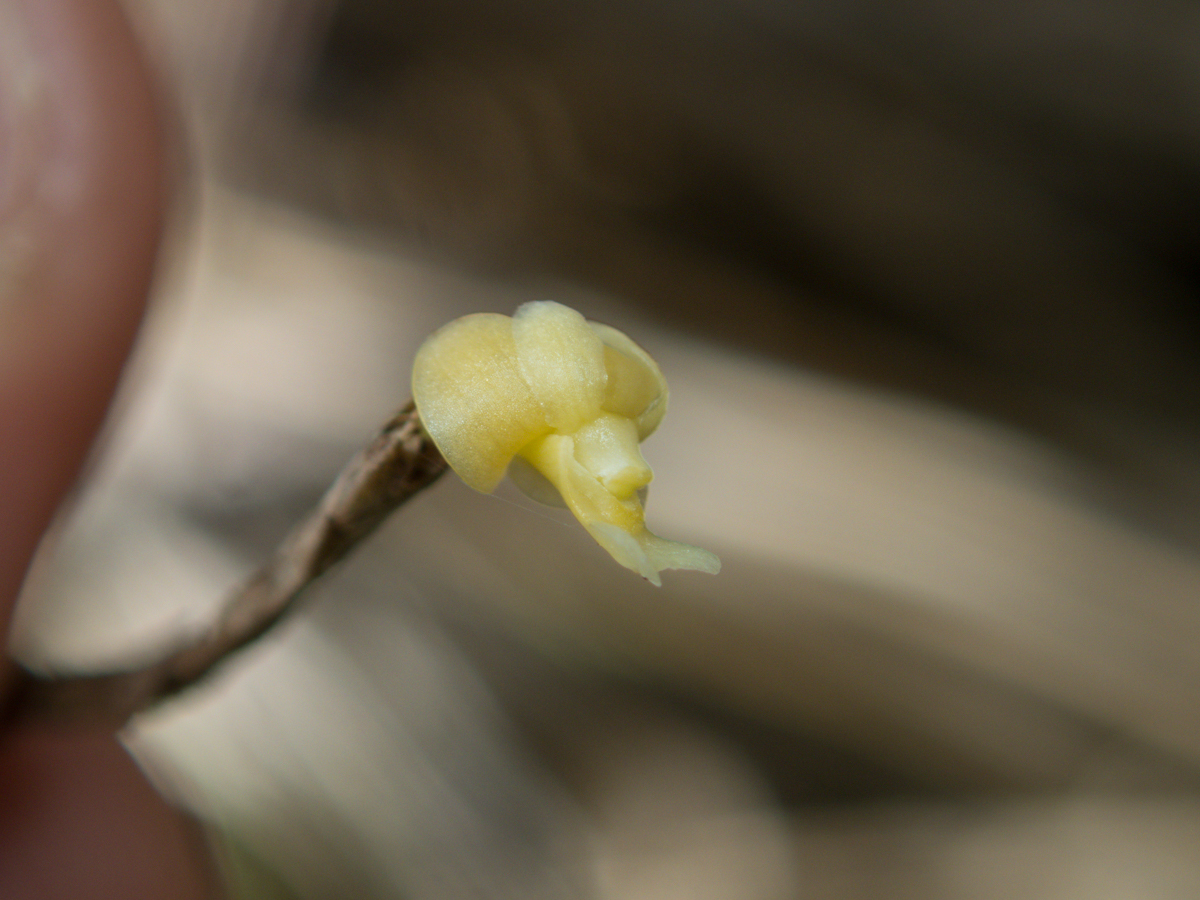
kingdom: Plantae
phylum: Tracheophyta
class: Liliopsida
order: Asparagales
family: Orchidaceae
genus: Dendrobium
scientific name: Dendrobium aloifolium
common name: Aloe-like dendrobium
